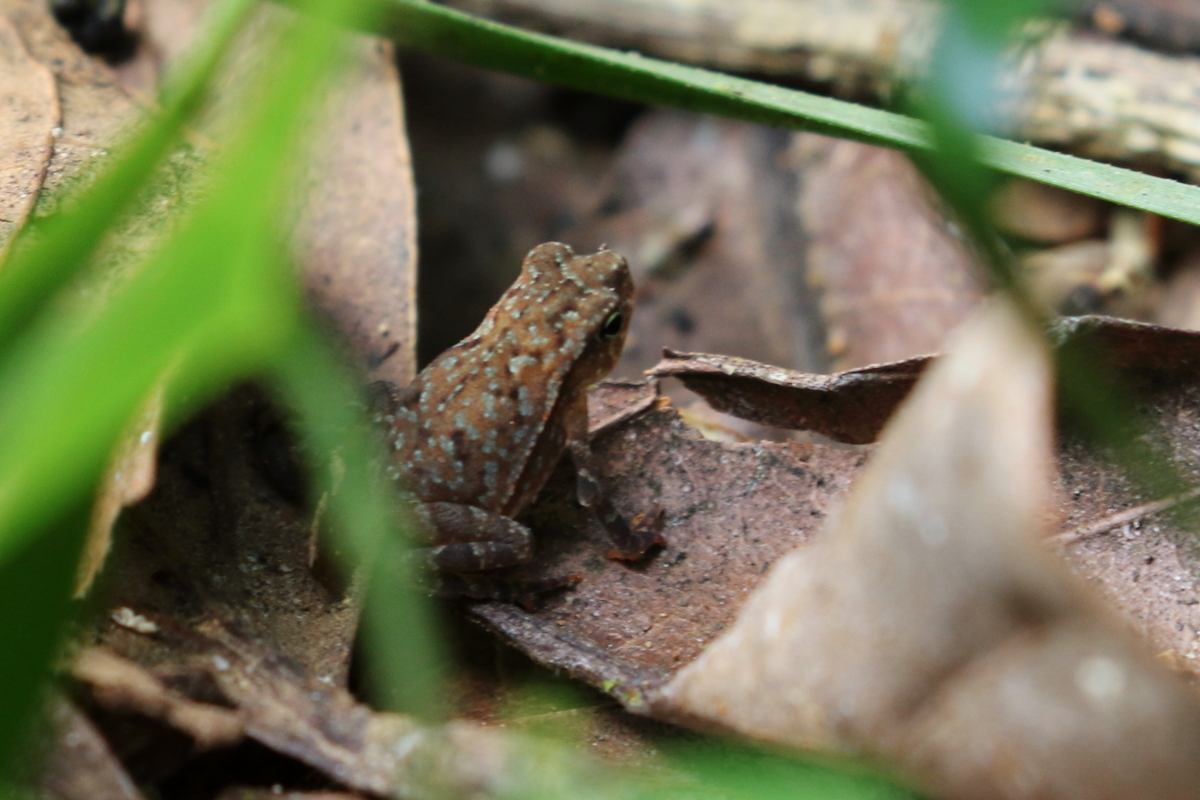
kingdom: Animalia
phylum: Chordata
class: Amphibia
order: Anura
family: Bufonidae
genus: Rhinella
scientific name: Rhinella alata
